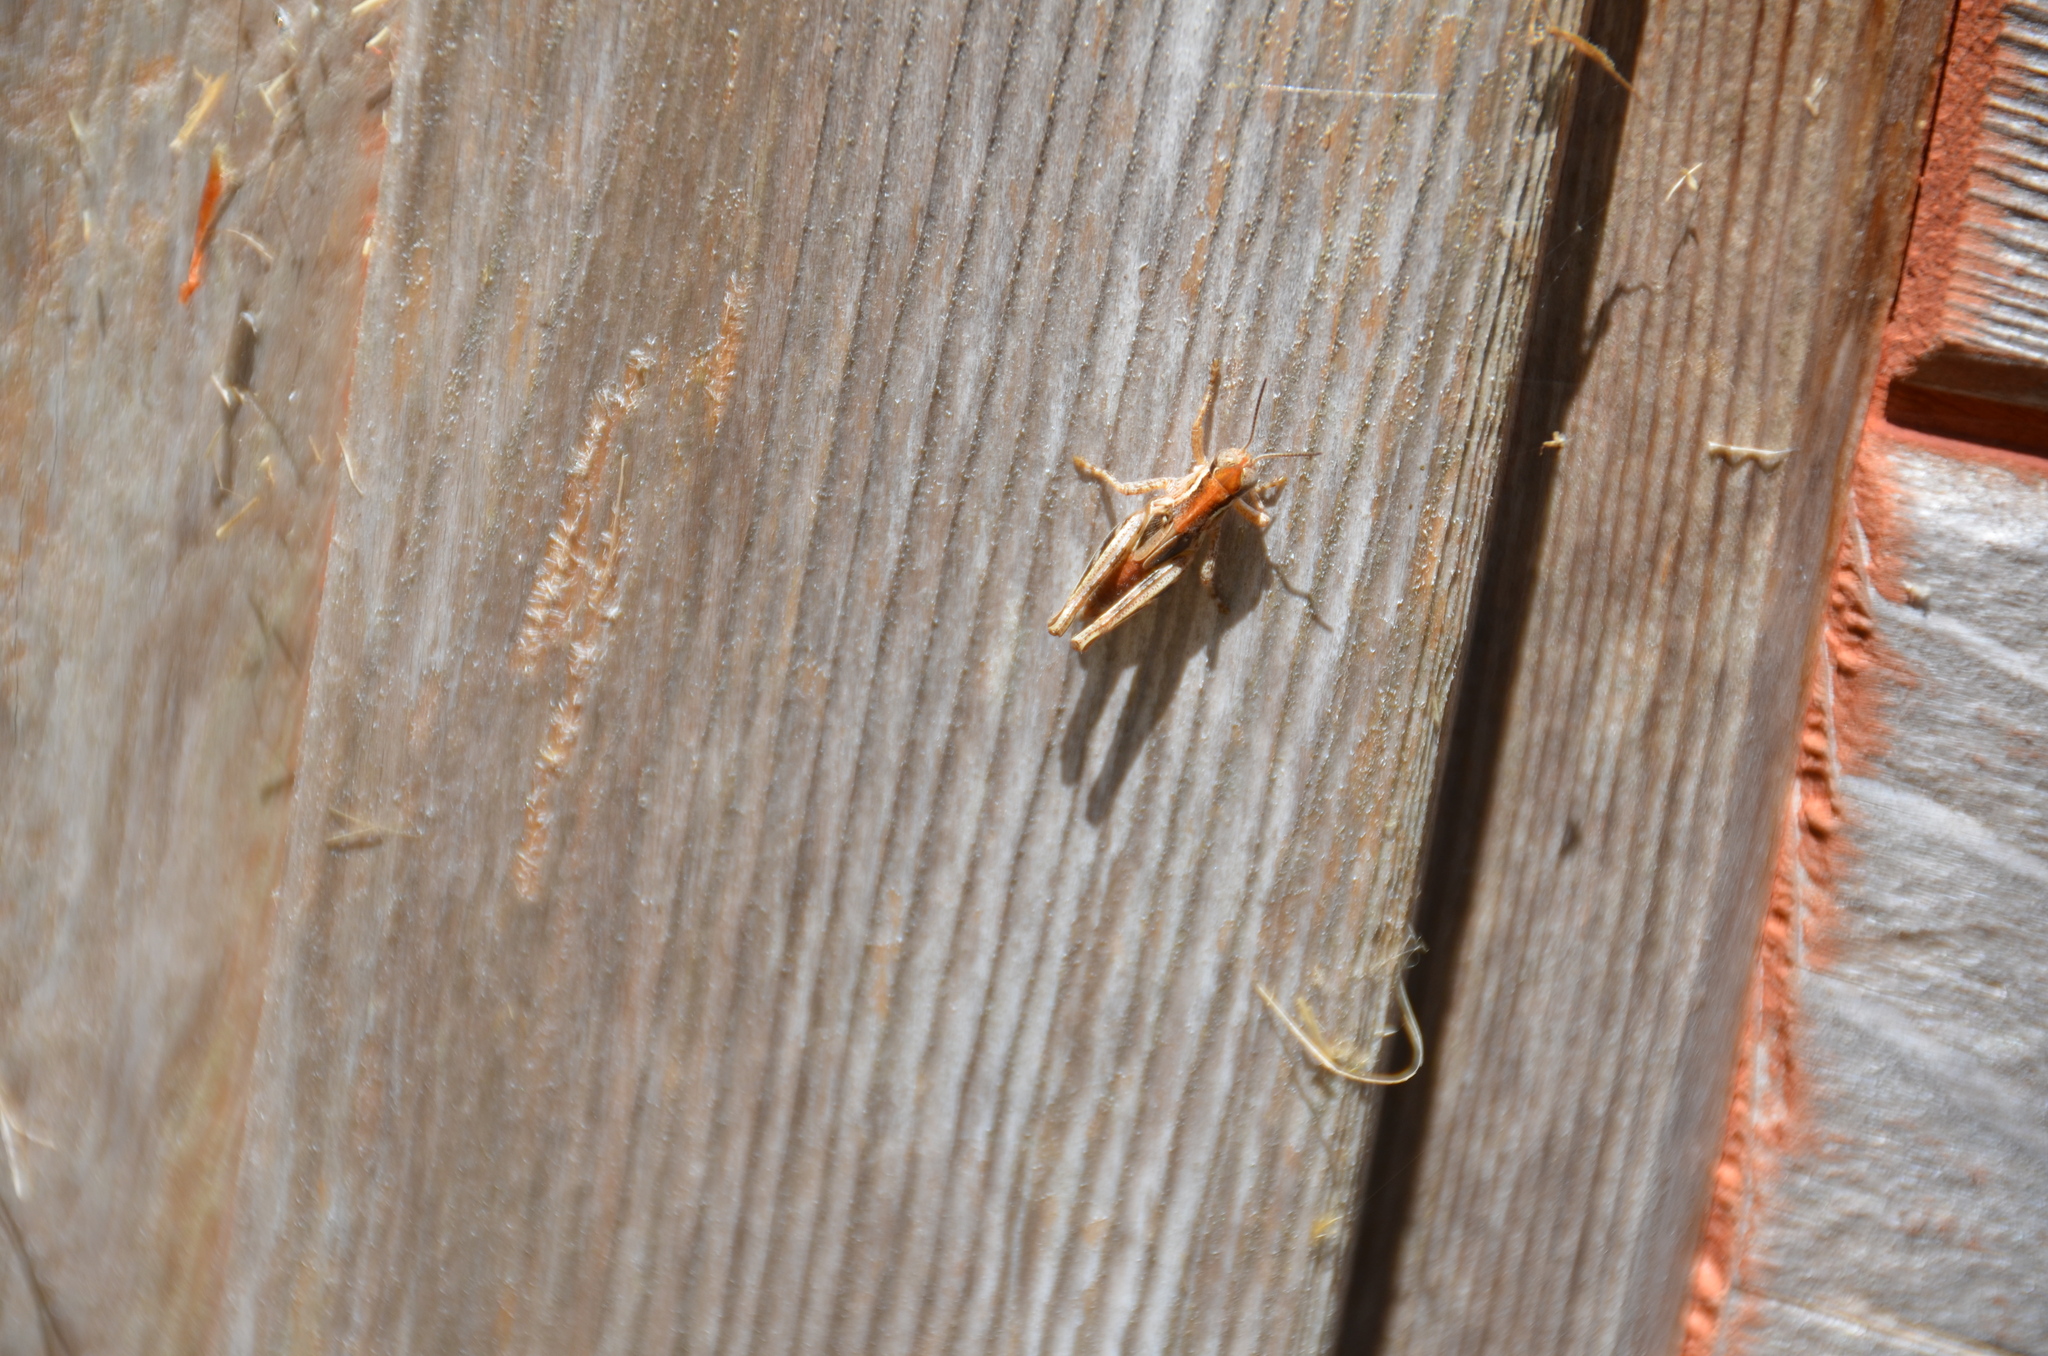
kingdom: Animalia
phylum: Arthropoda
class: Insecta
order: Orthoptera
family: Acrididae
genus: Melanoplus
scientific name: Melanoplus sanguinipes
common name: Migratory grasshopper
